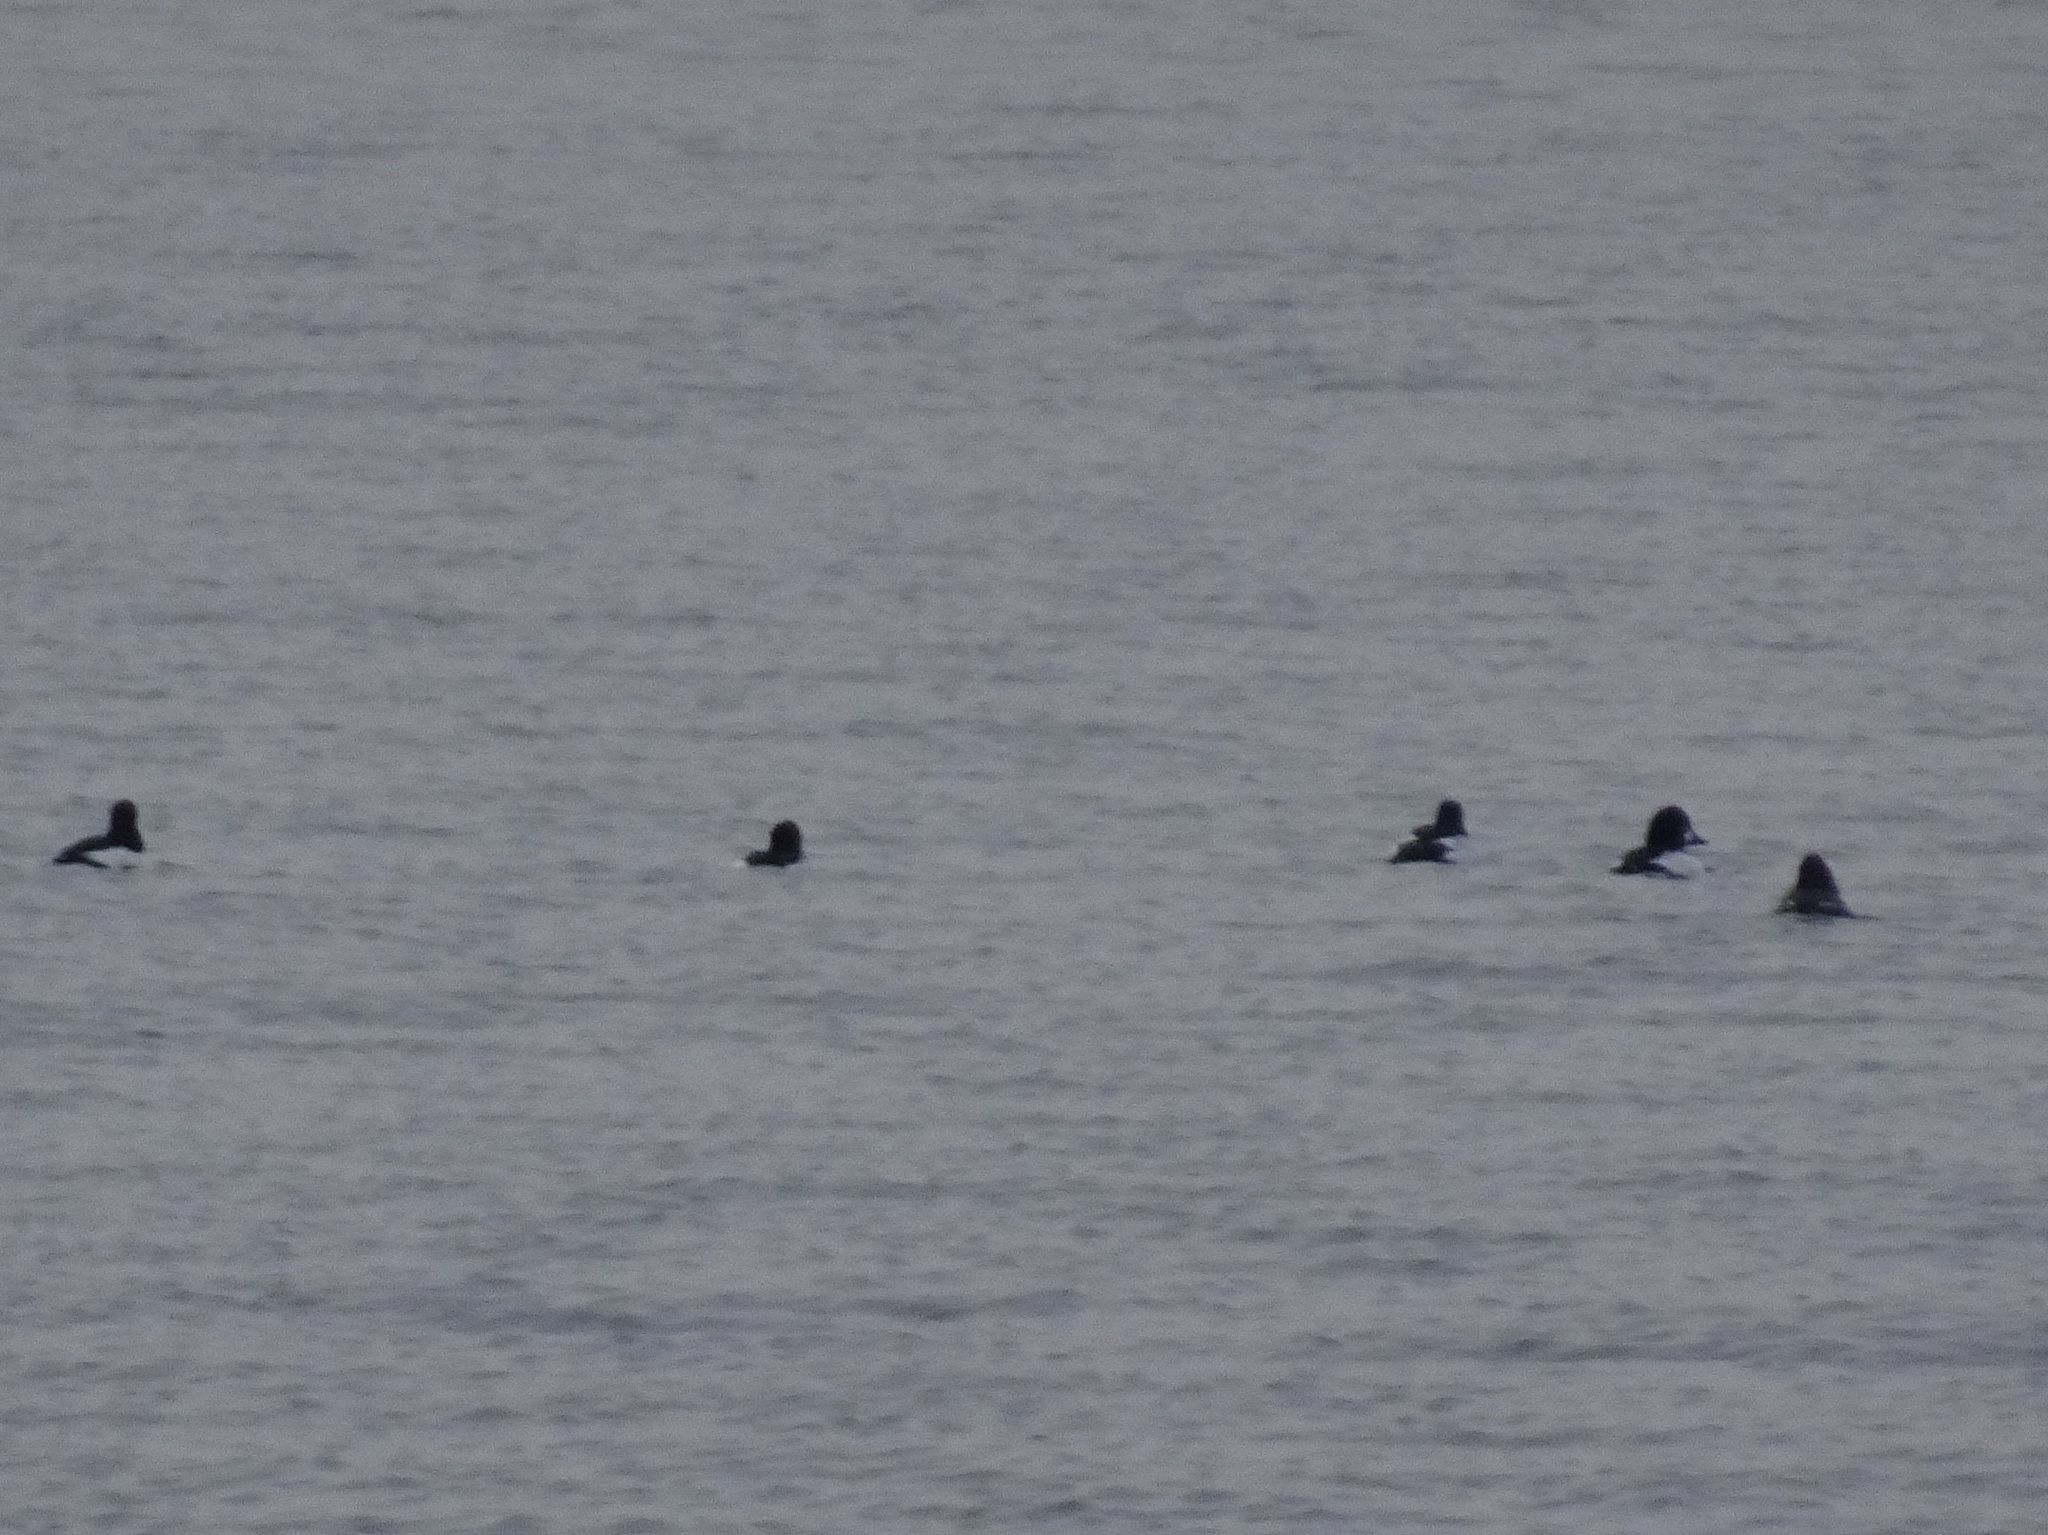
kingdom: Animalia
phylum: Chordata
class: Aves
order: Anseriformes
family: Anatidae
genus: Bucephala
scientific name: Bucephala clangula
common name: Common goldeneye
